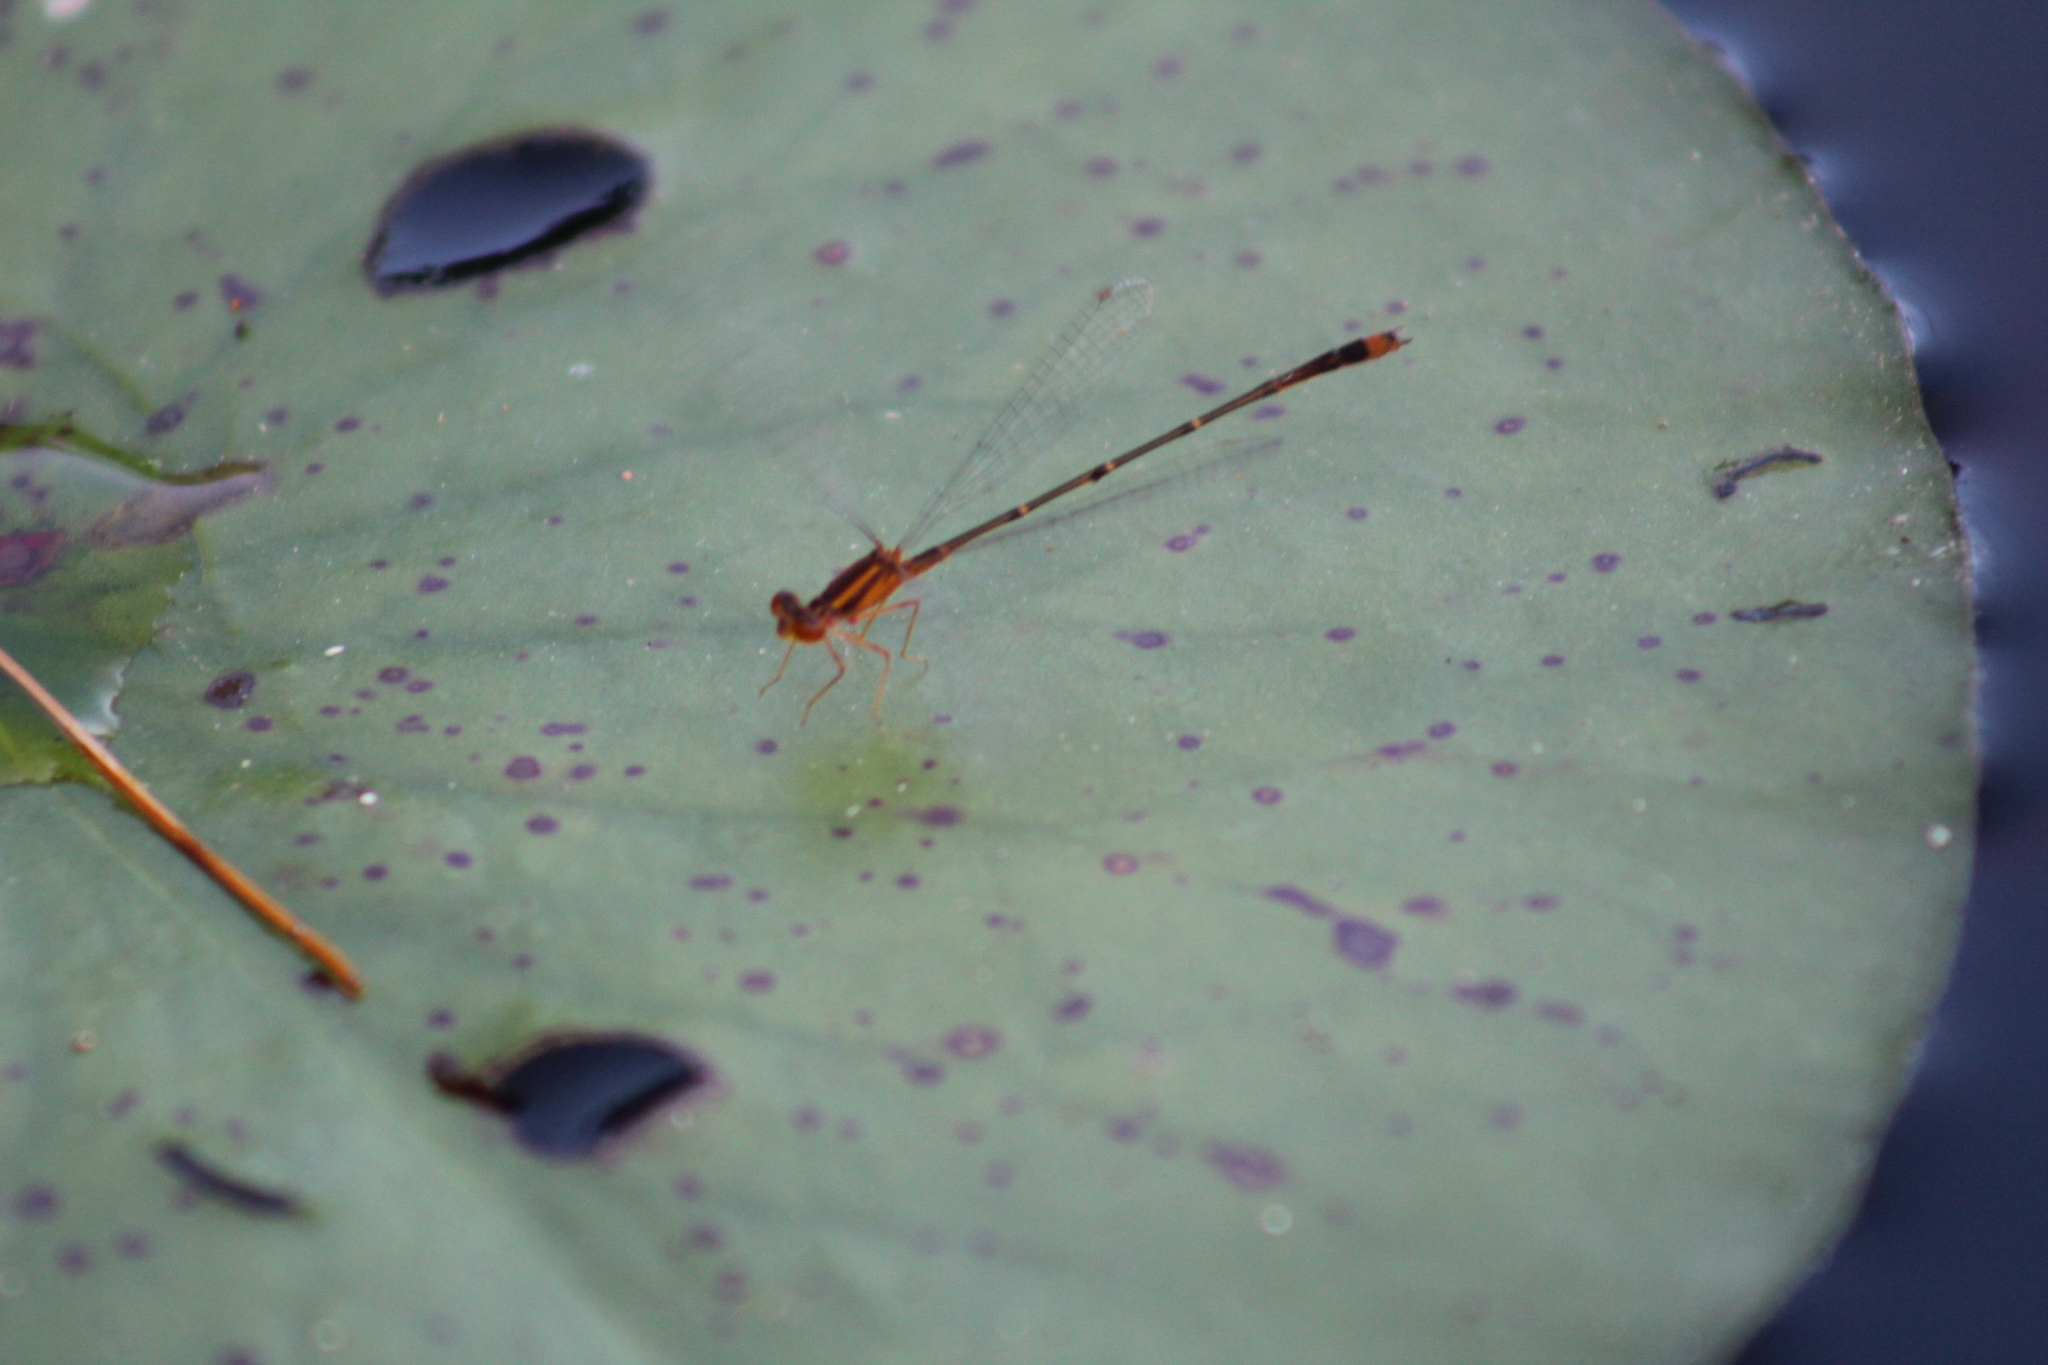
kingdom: Animalia
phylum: Arthropoda
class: Insecta
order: Odonata
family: Coenagrionidae
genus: Enallagma
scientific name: Enallagma signatum
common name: Orange bluet
